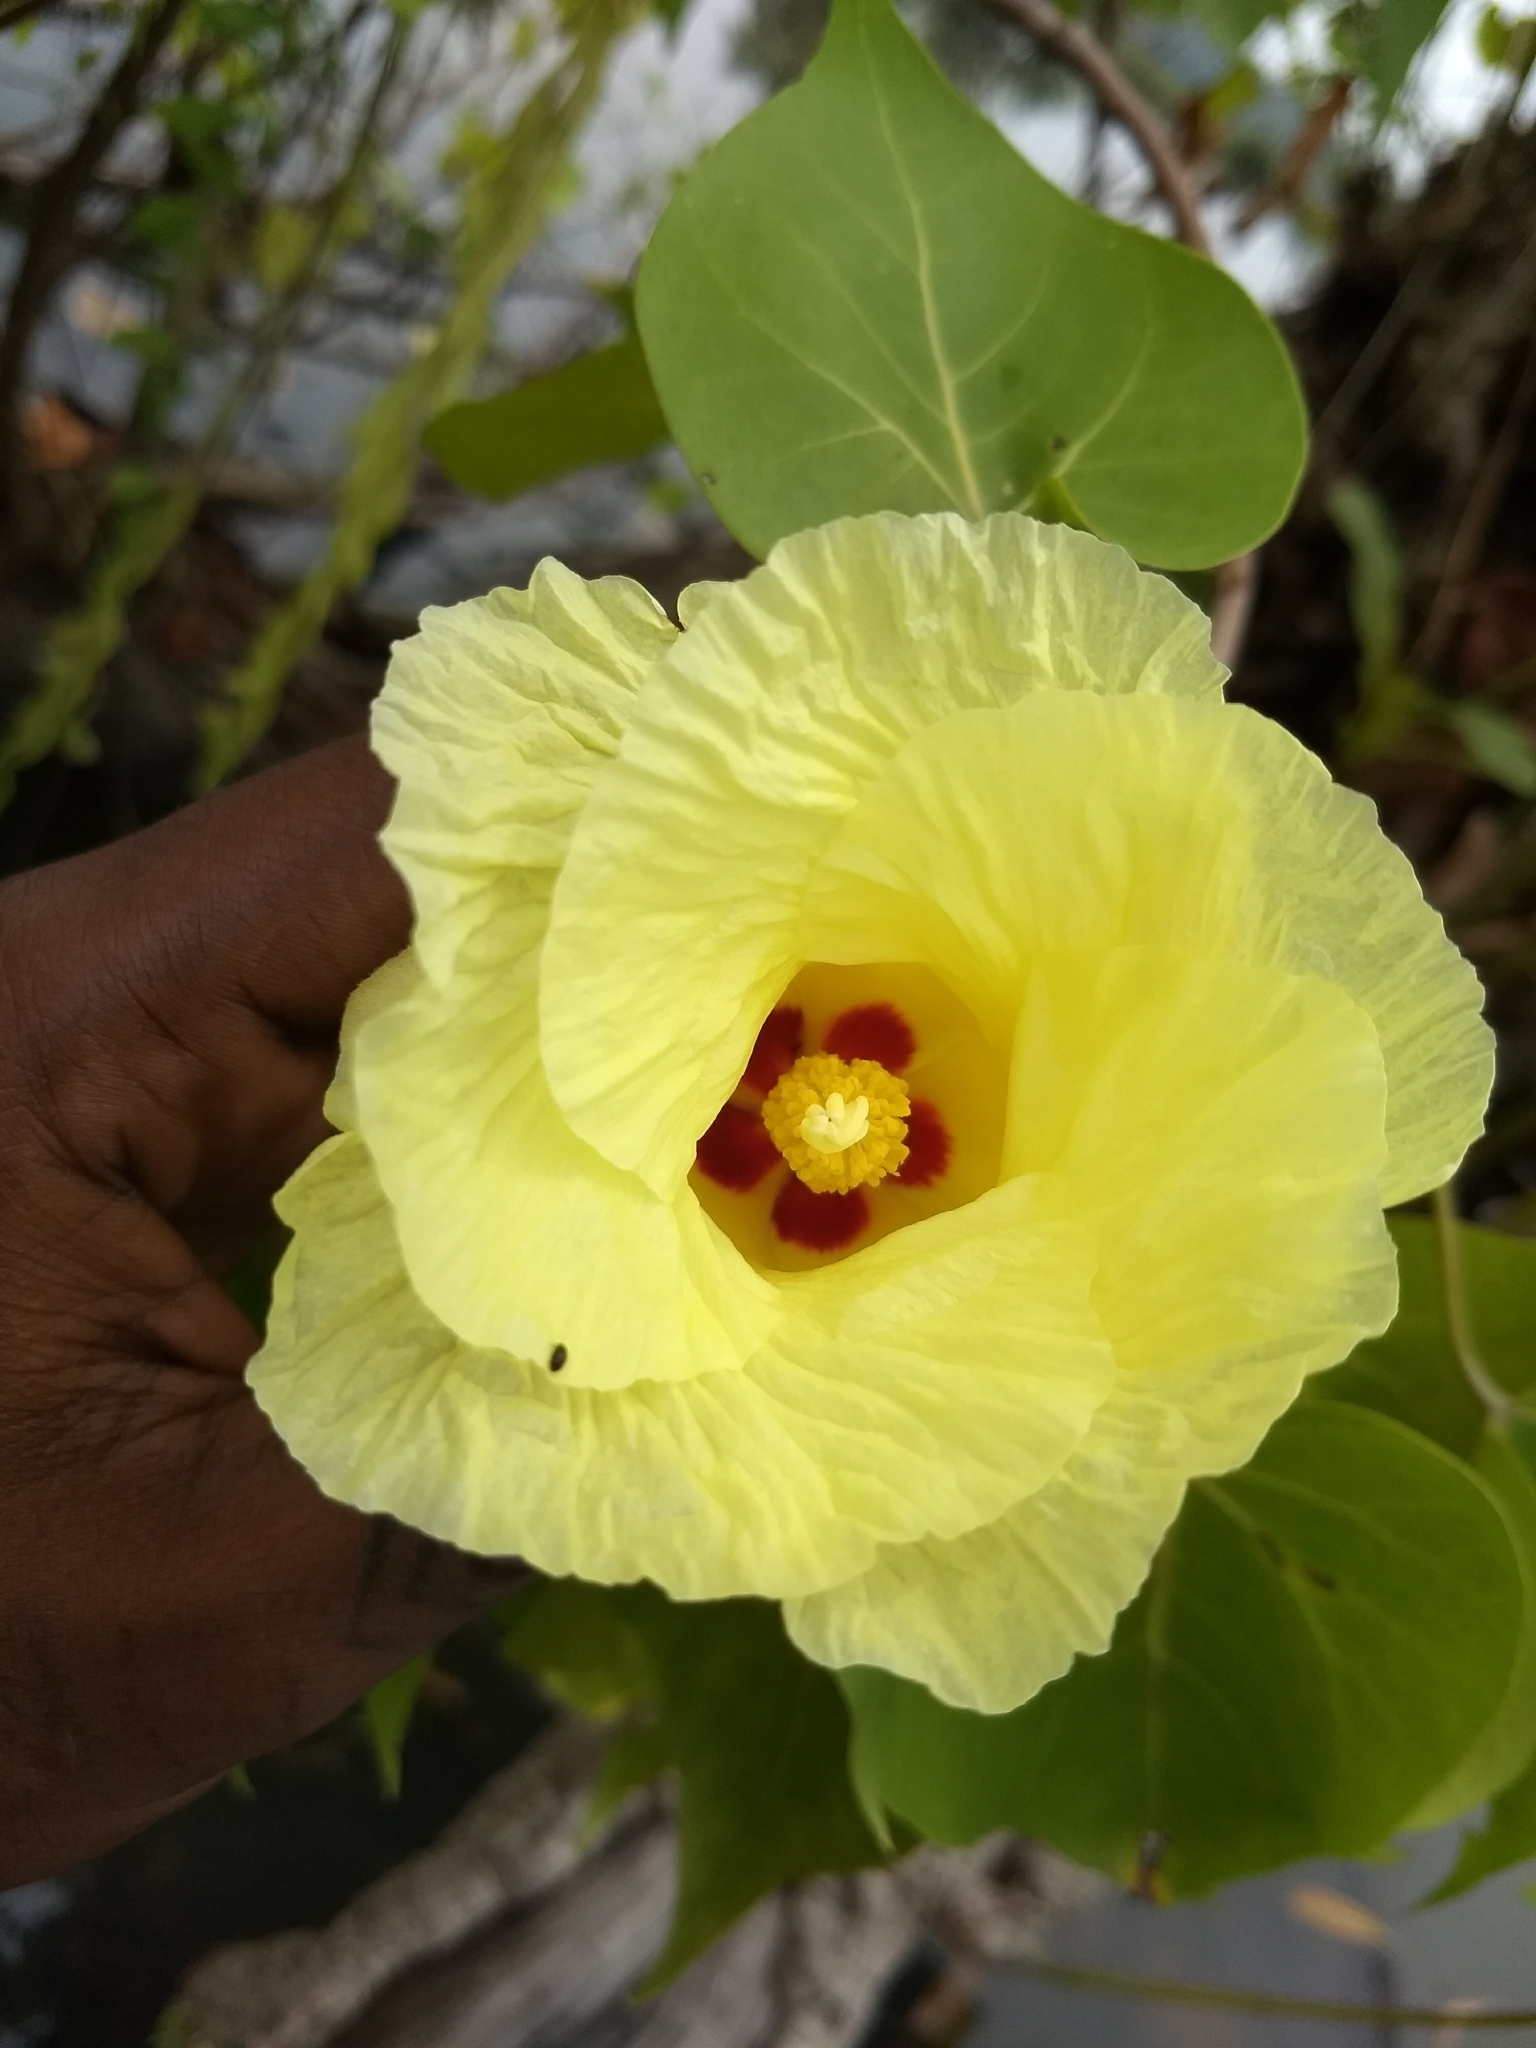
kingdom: Plantae
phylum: Tracheophyta
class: Magnoliopsida
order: Malvales
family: Malvaceae
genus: Thespesia
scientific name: Thespesia populnea
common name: Seaside mahoe
